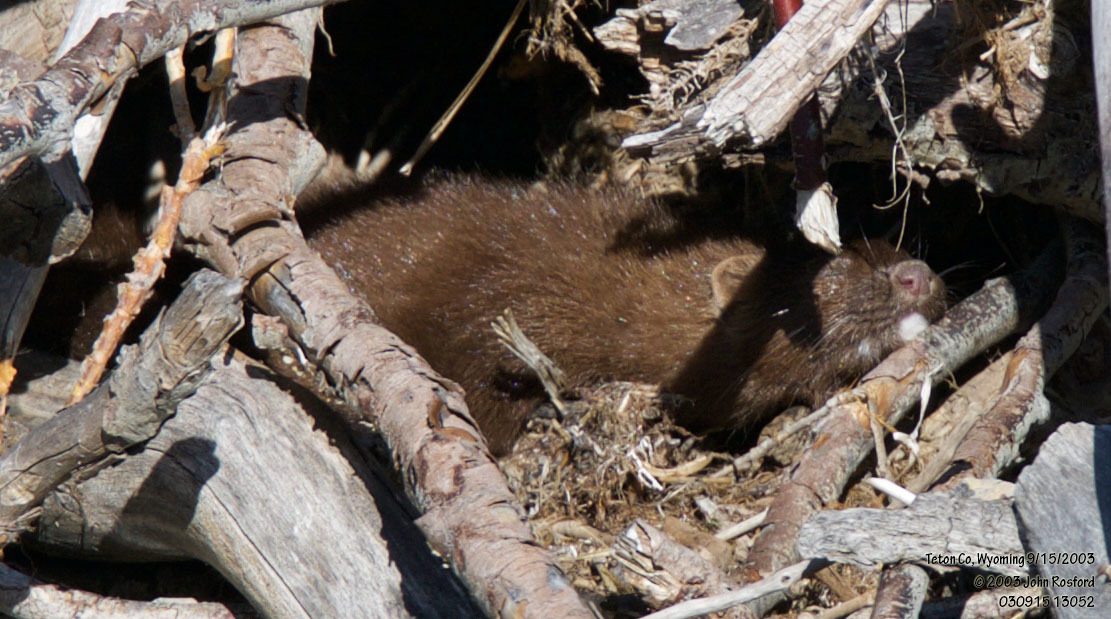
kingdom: Animalia
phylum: Chordata
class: Mammalia
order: Carnivora
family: Mustelidae
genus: Mustela
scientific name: Mustela
